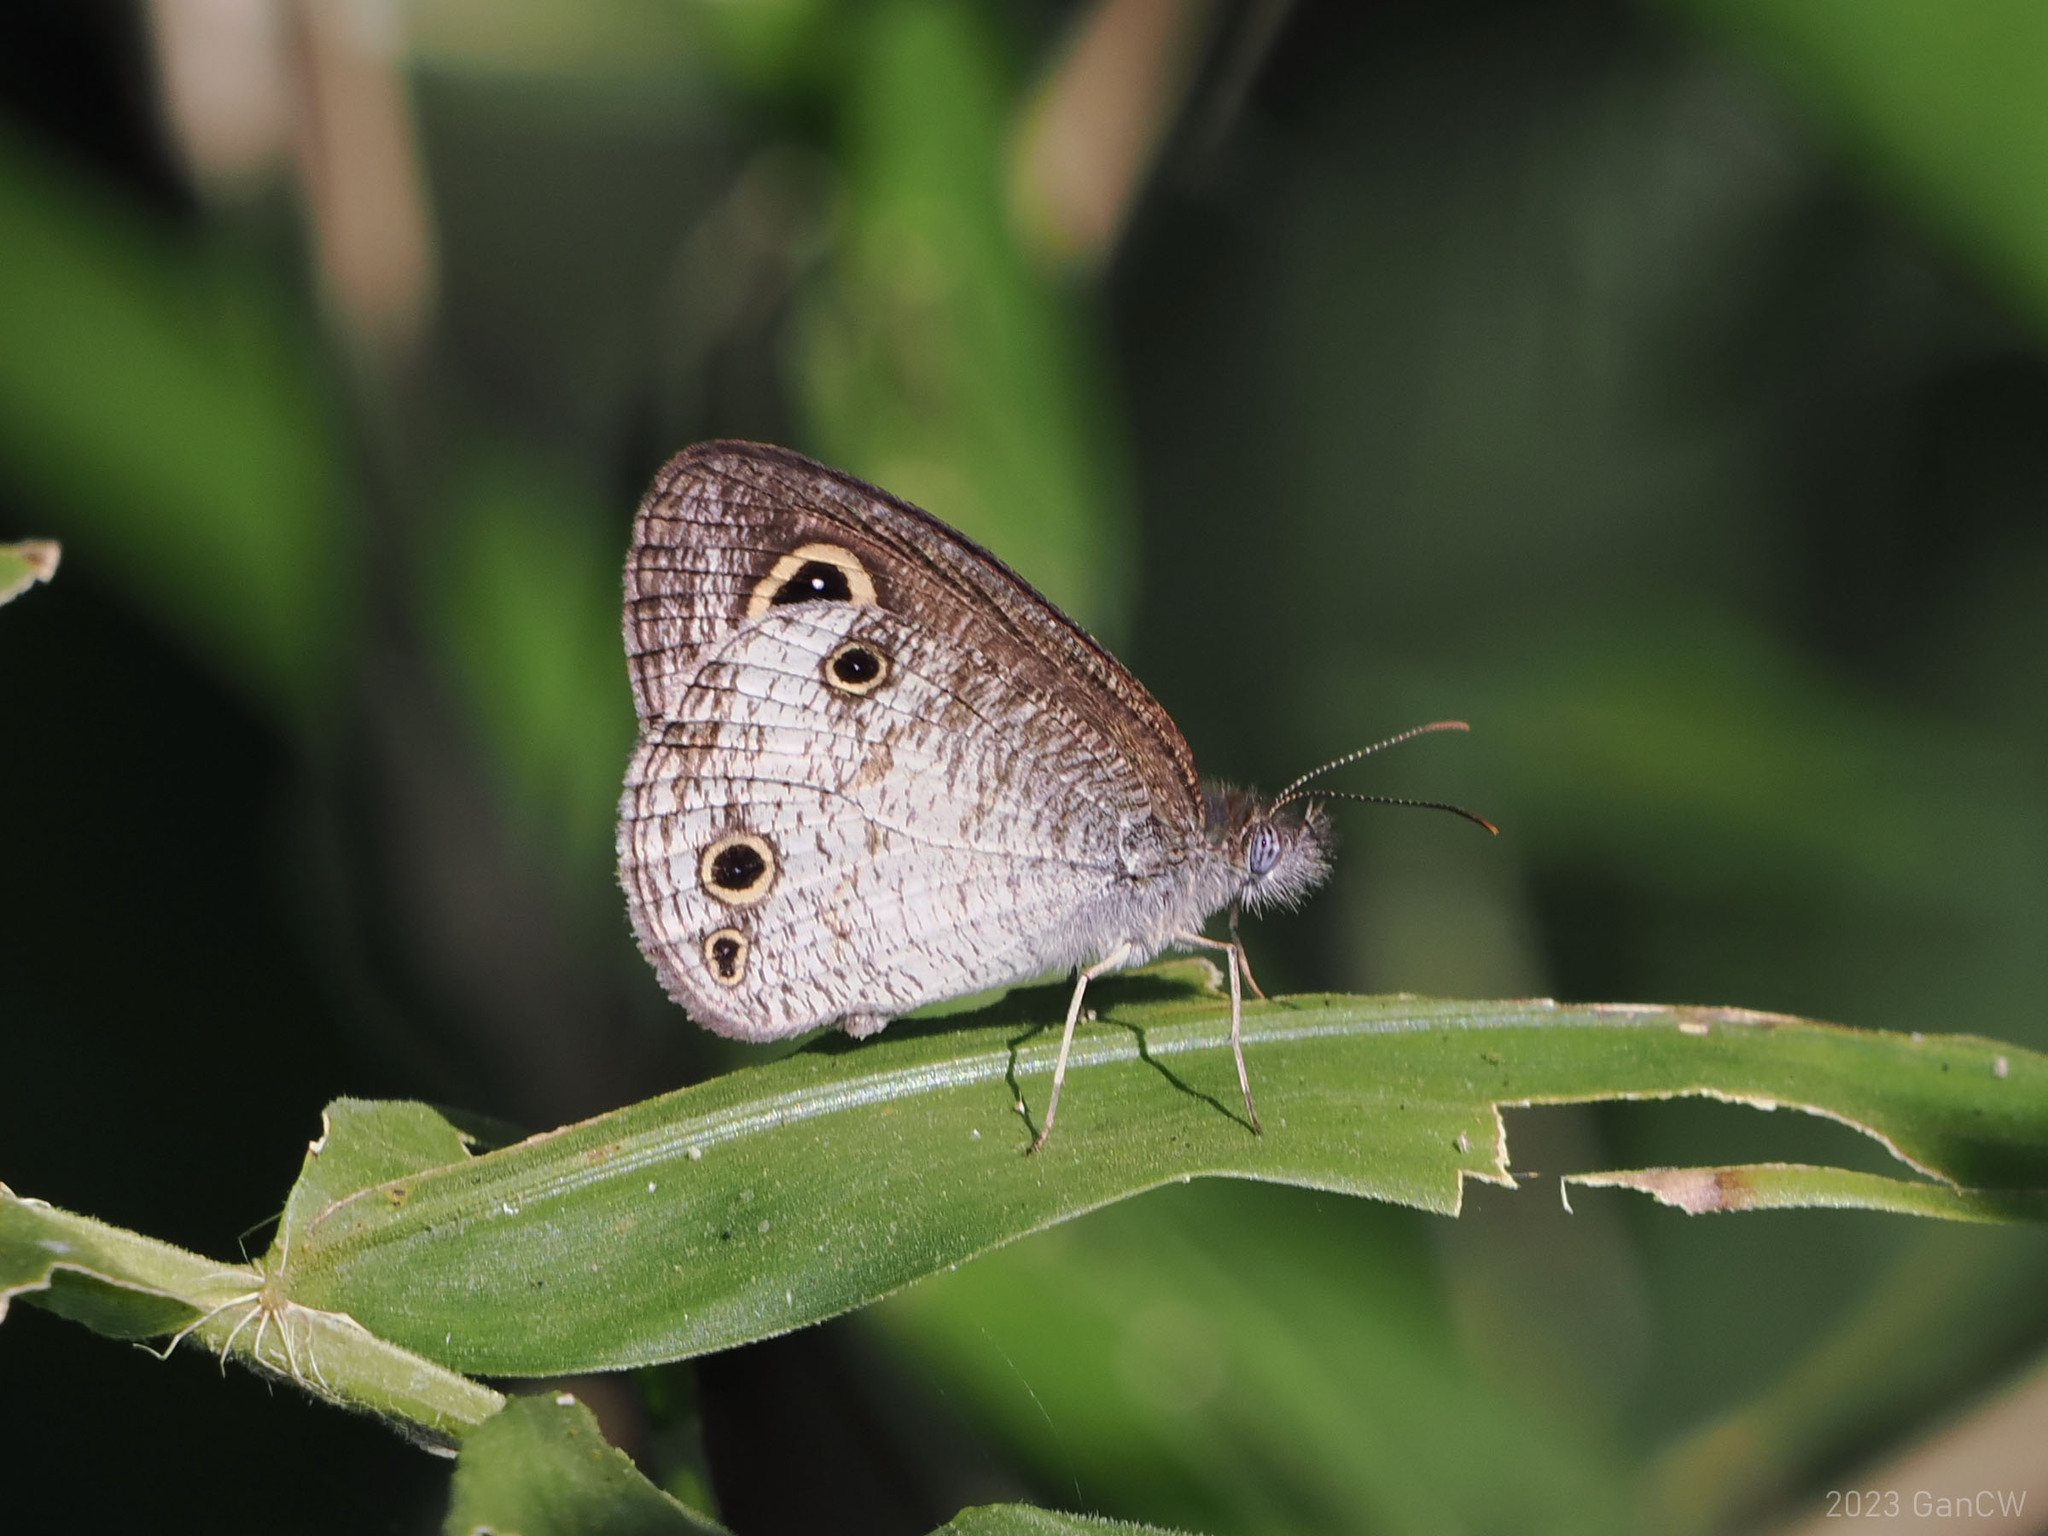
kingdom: Animalia
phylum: Arthropoda
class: Insecta
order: Lepidoptera
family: Nymphalidae
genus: Ypthima
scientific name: Ypthima pandocus
